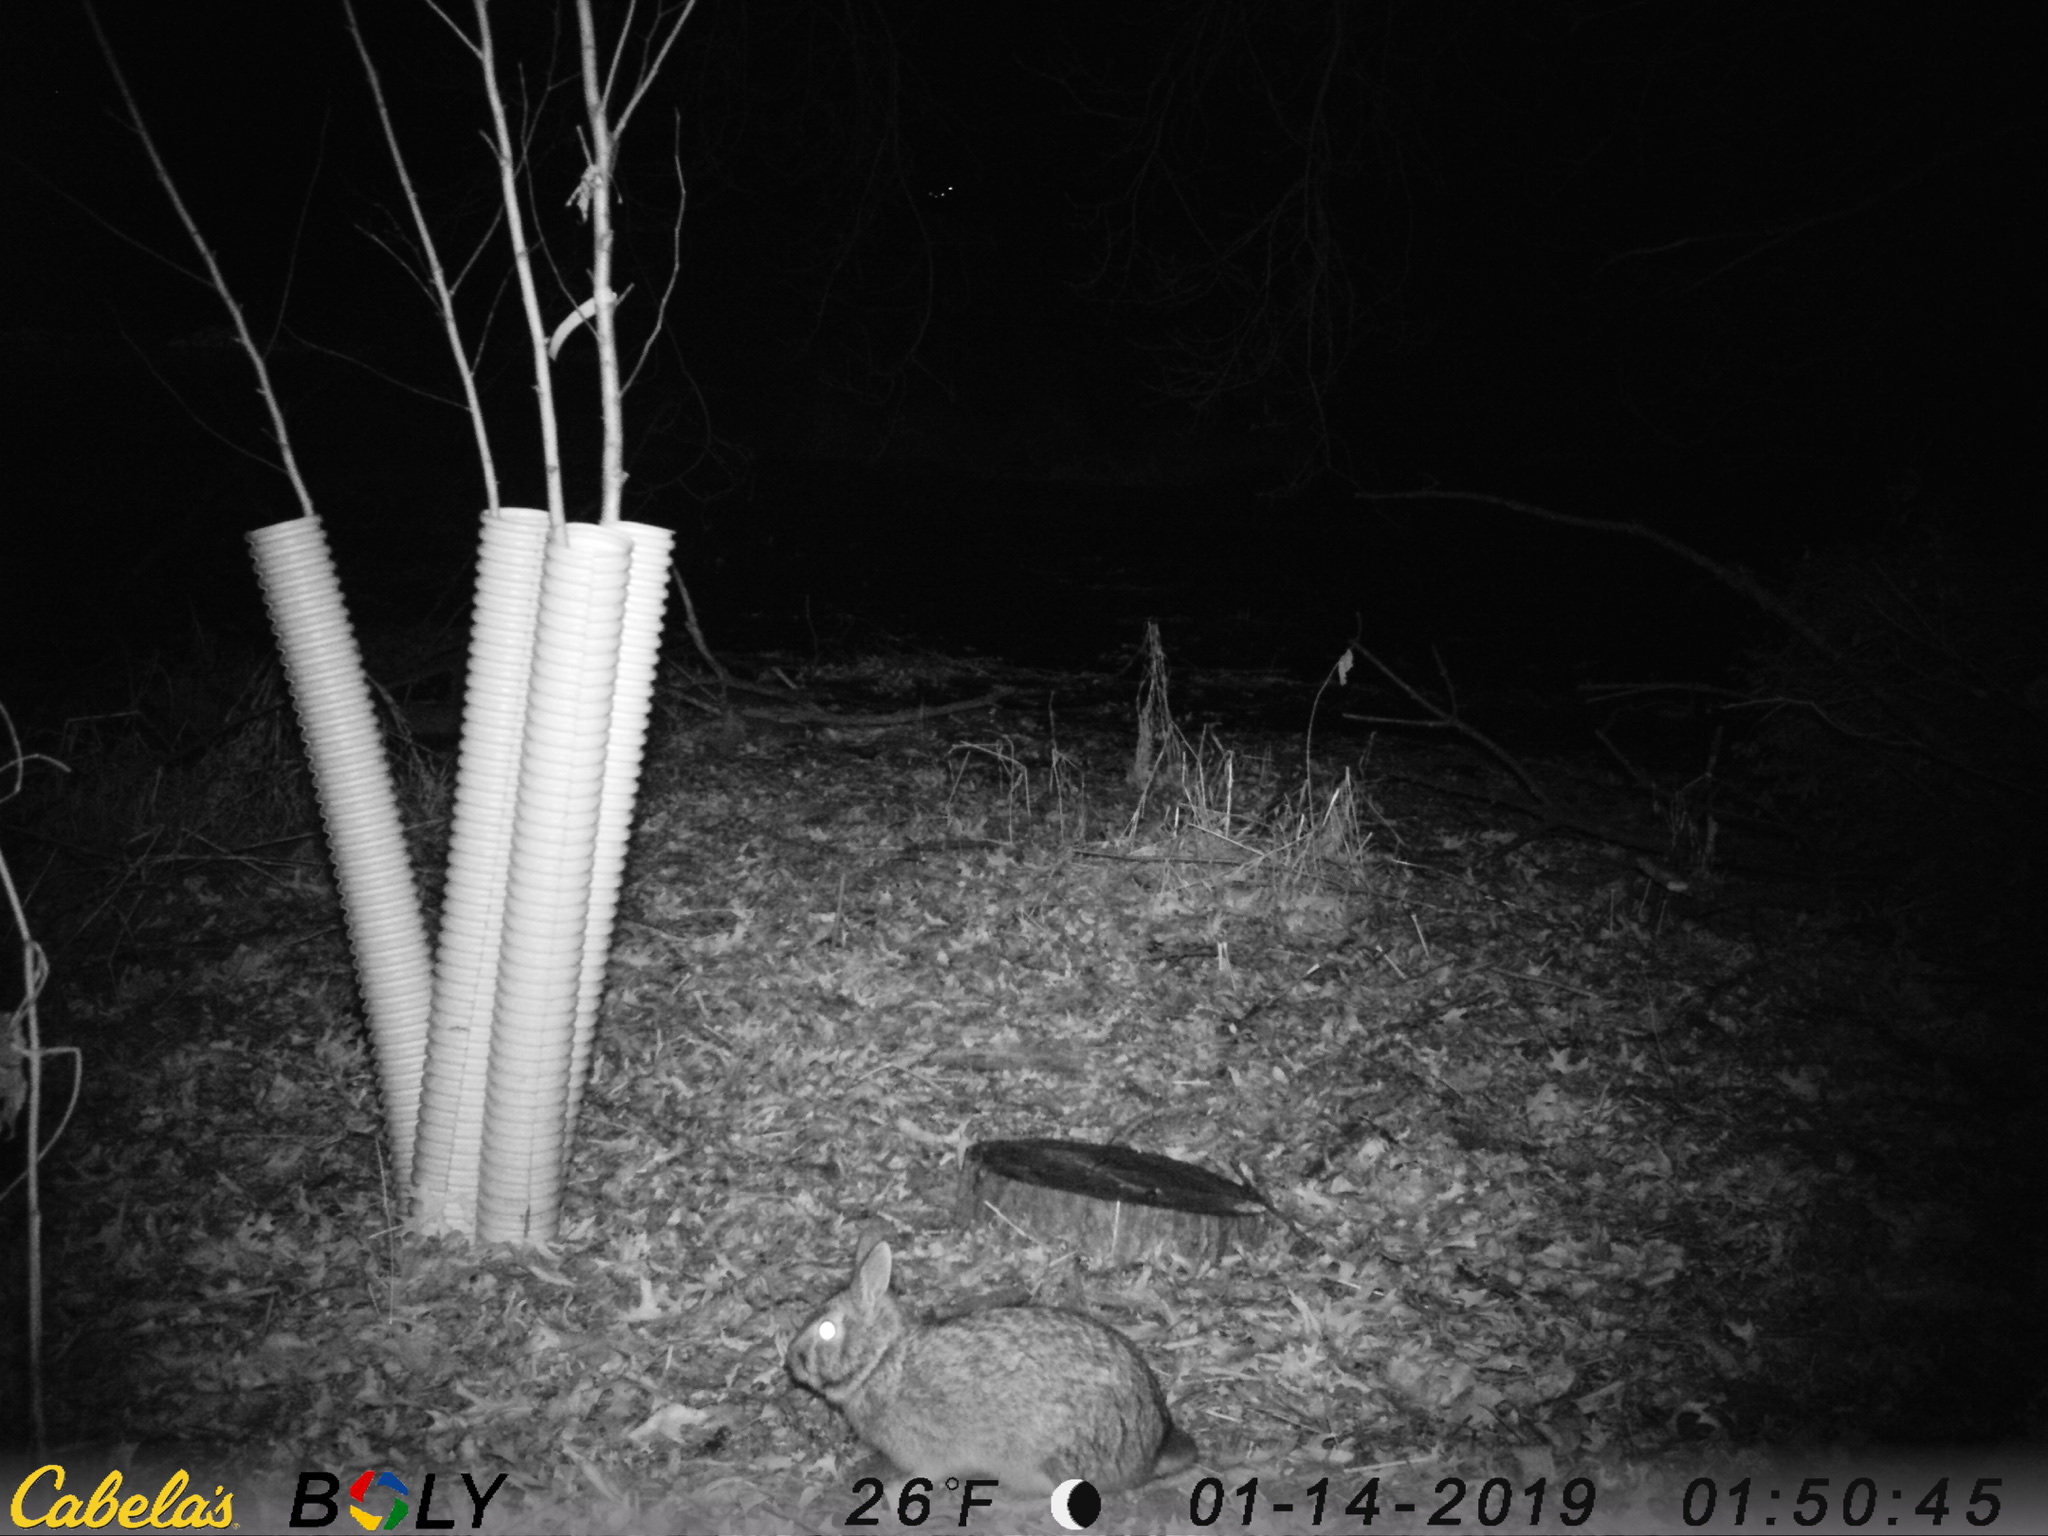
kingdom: Animalia
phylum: Chordata
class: Mammalia
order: Lagomorpha
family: Leporidae
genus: Sylvilagus
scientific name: Sylvilagus floridanus
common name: Eastern cottontail
